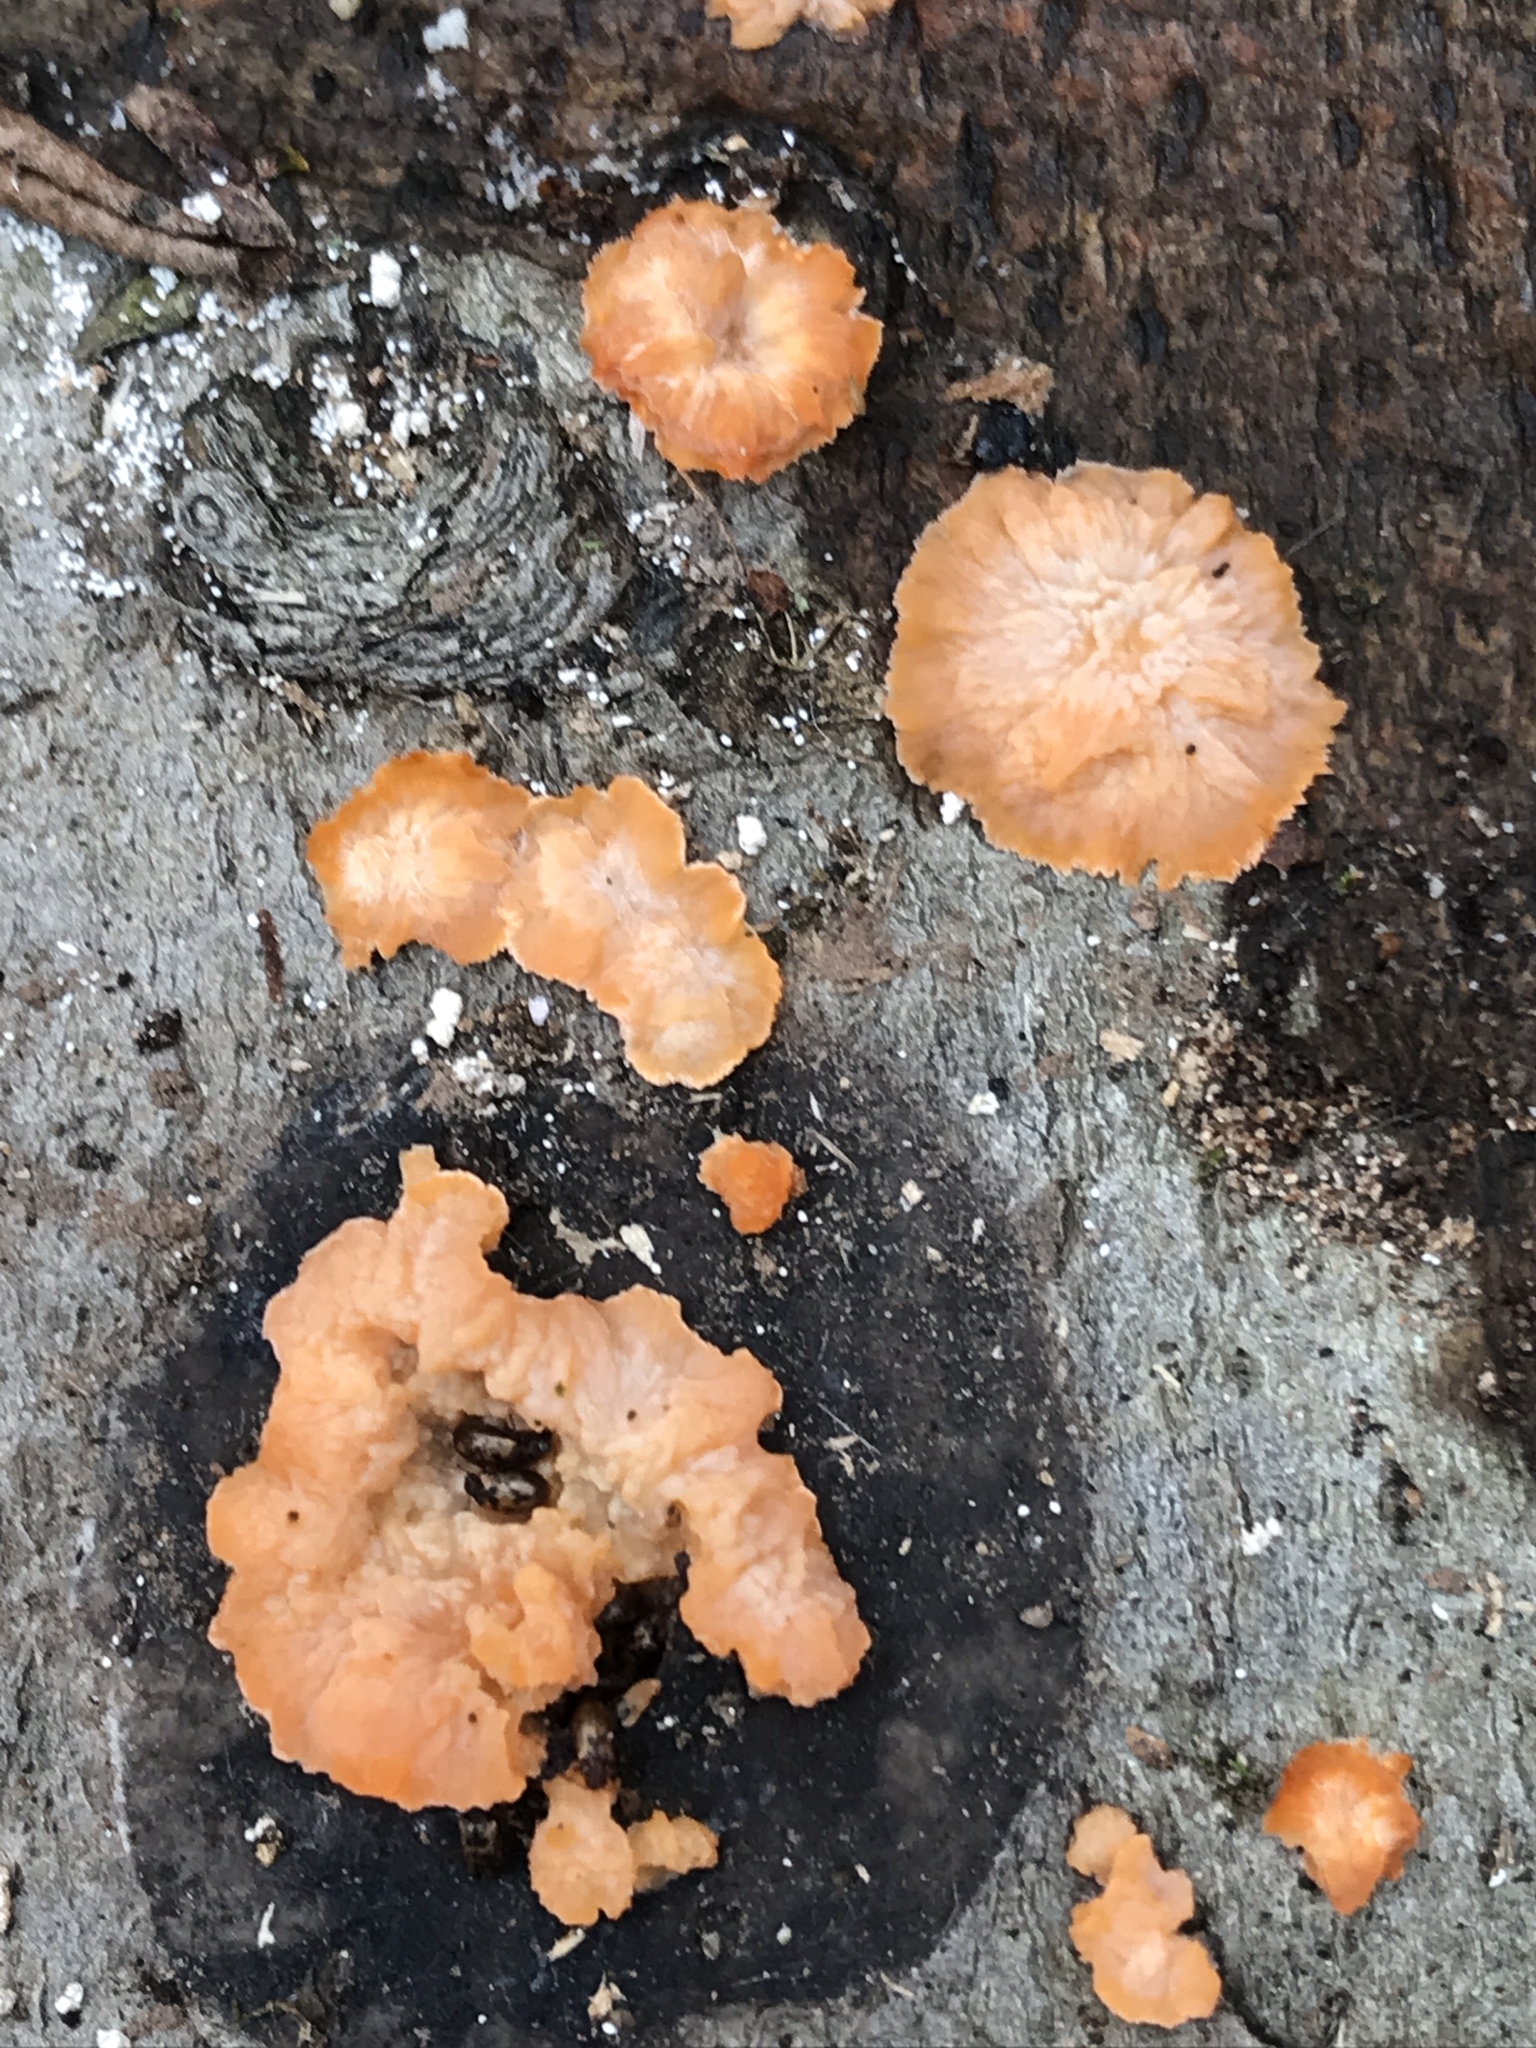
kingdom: Fungi
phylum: Basidiomycota
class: Agaricomycetes
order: Polyporales
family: Meruliaceae
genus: Phlebia
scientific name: Phlebia radiata
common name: Wrinkled crust
